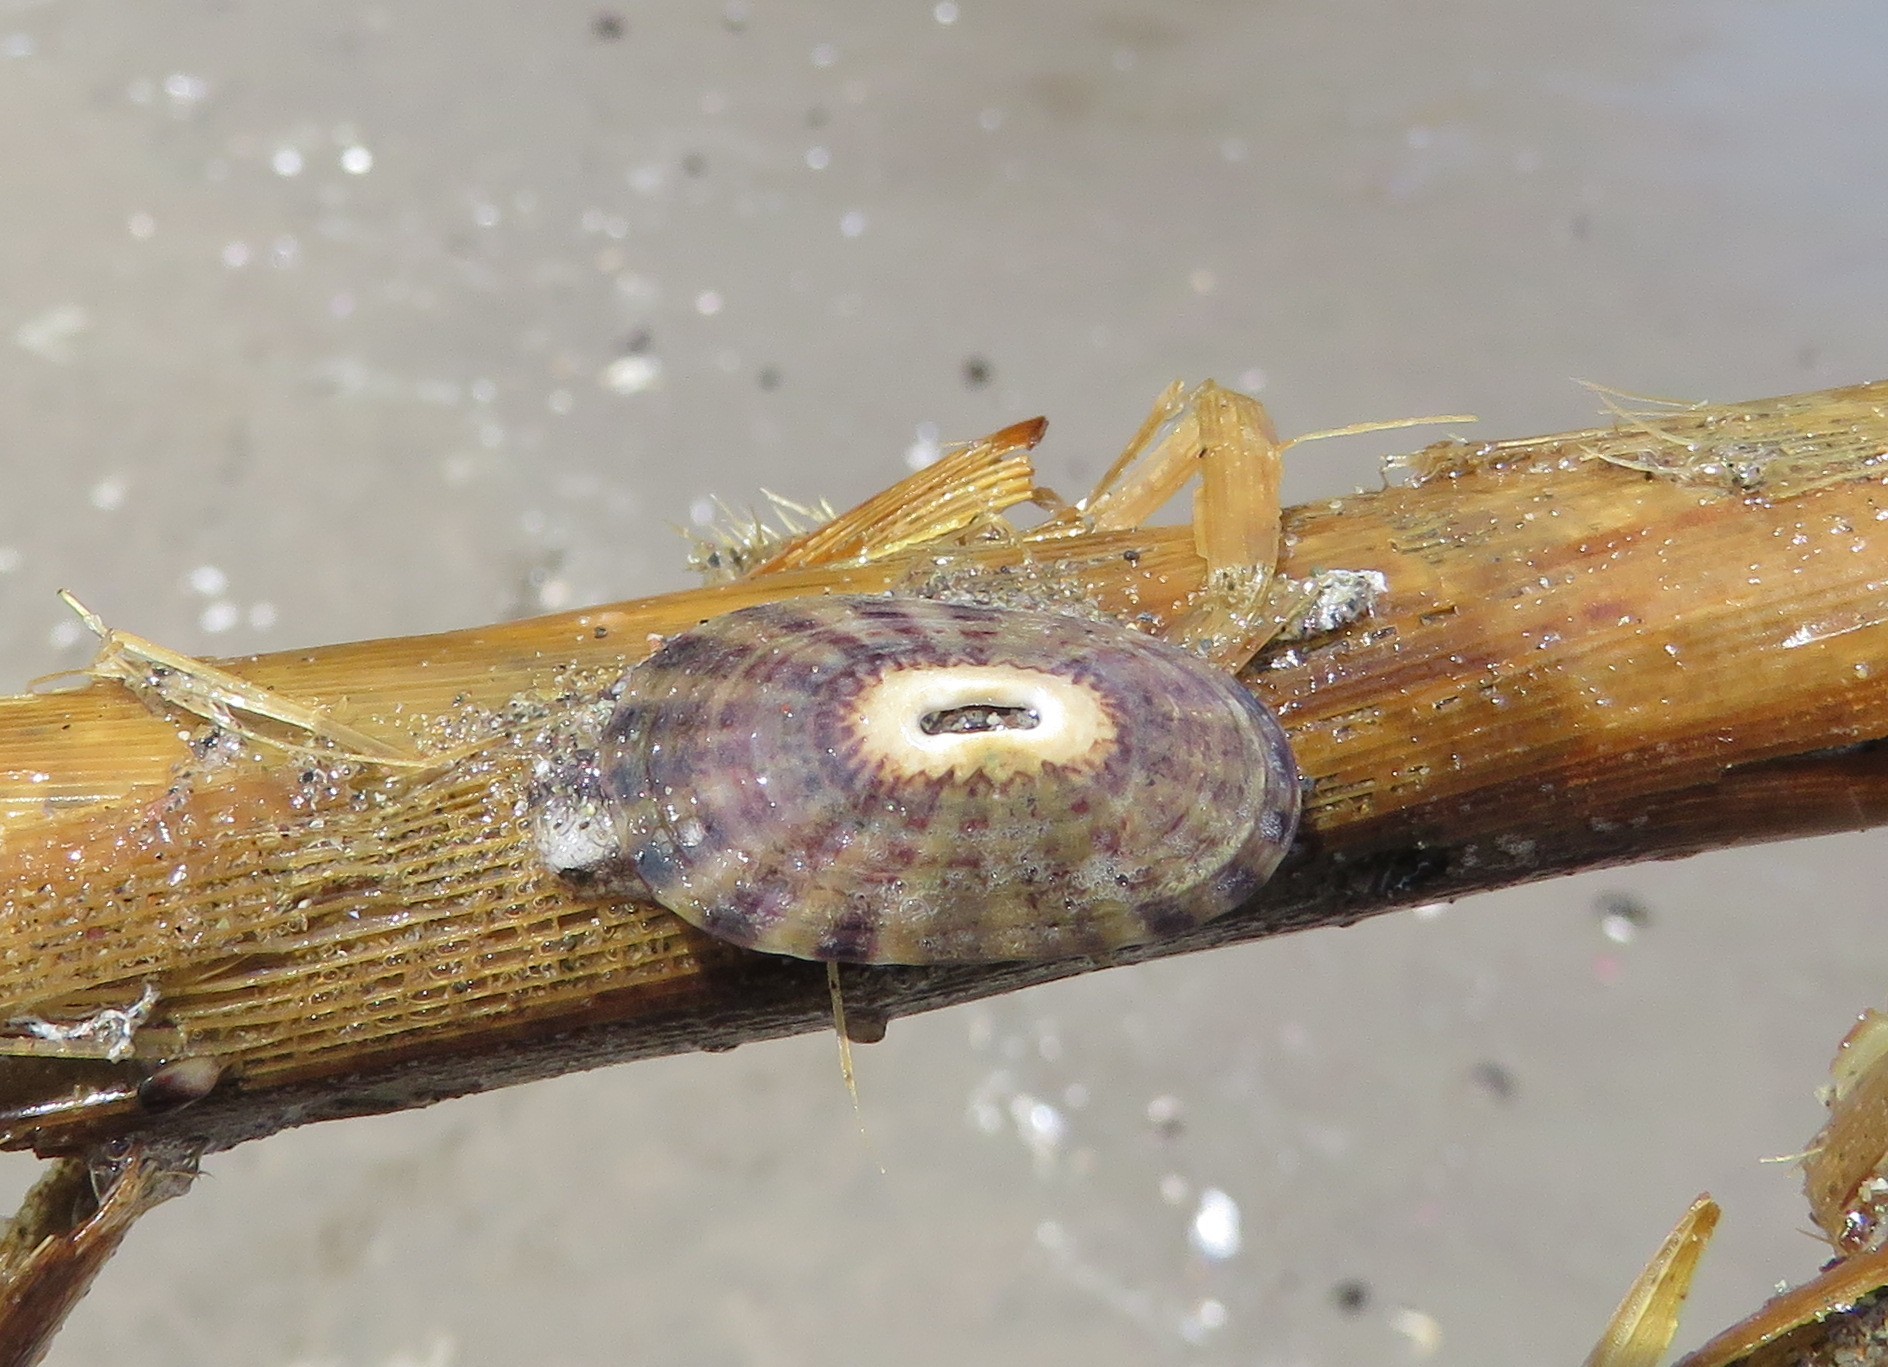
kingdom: Animalia
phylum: Mollusca
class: Gastropoda
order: Lepetellida
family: Fissurellidae
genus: Fissurella
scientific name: Fissurella limbata
